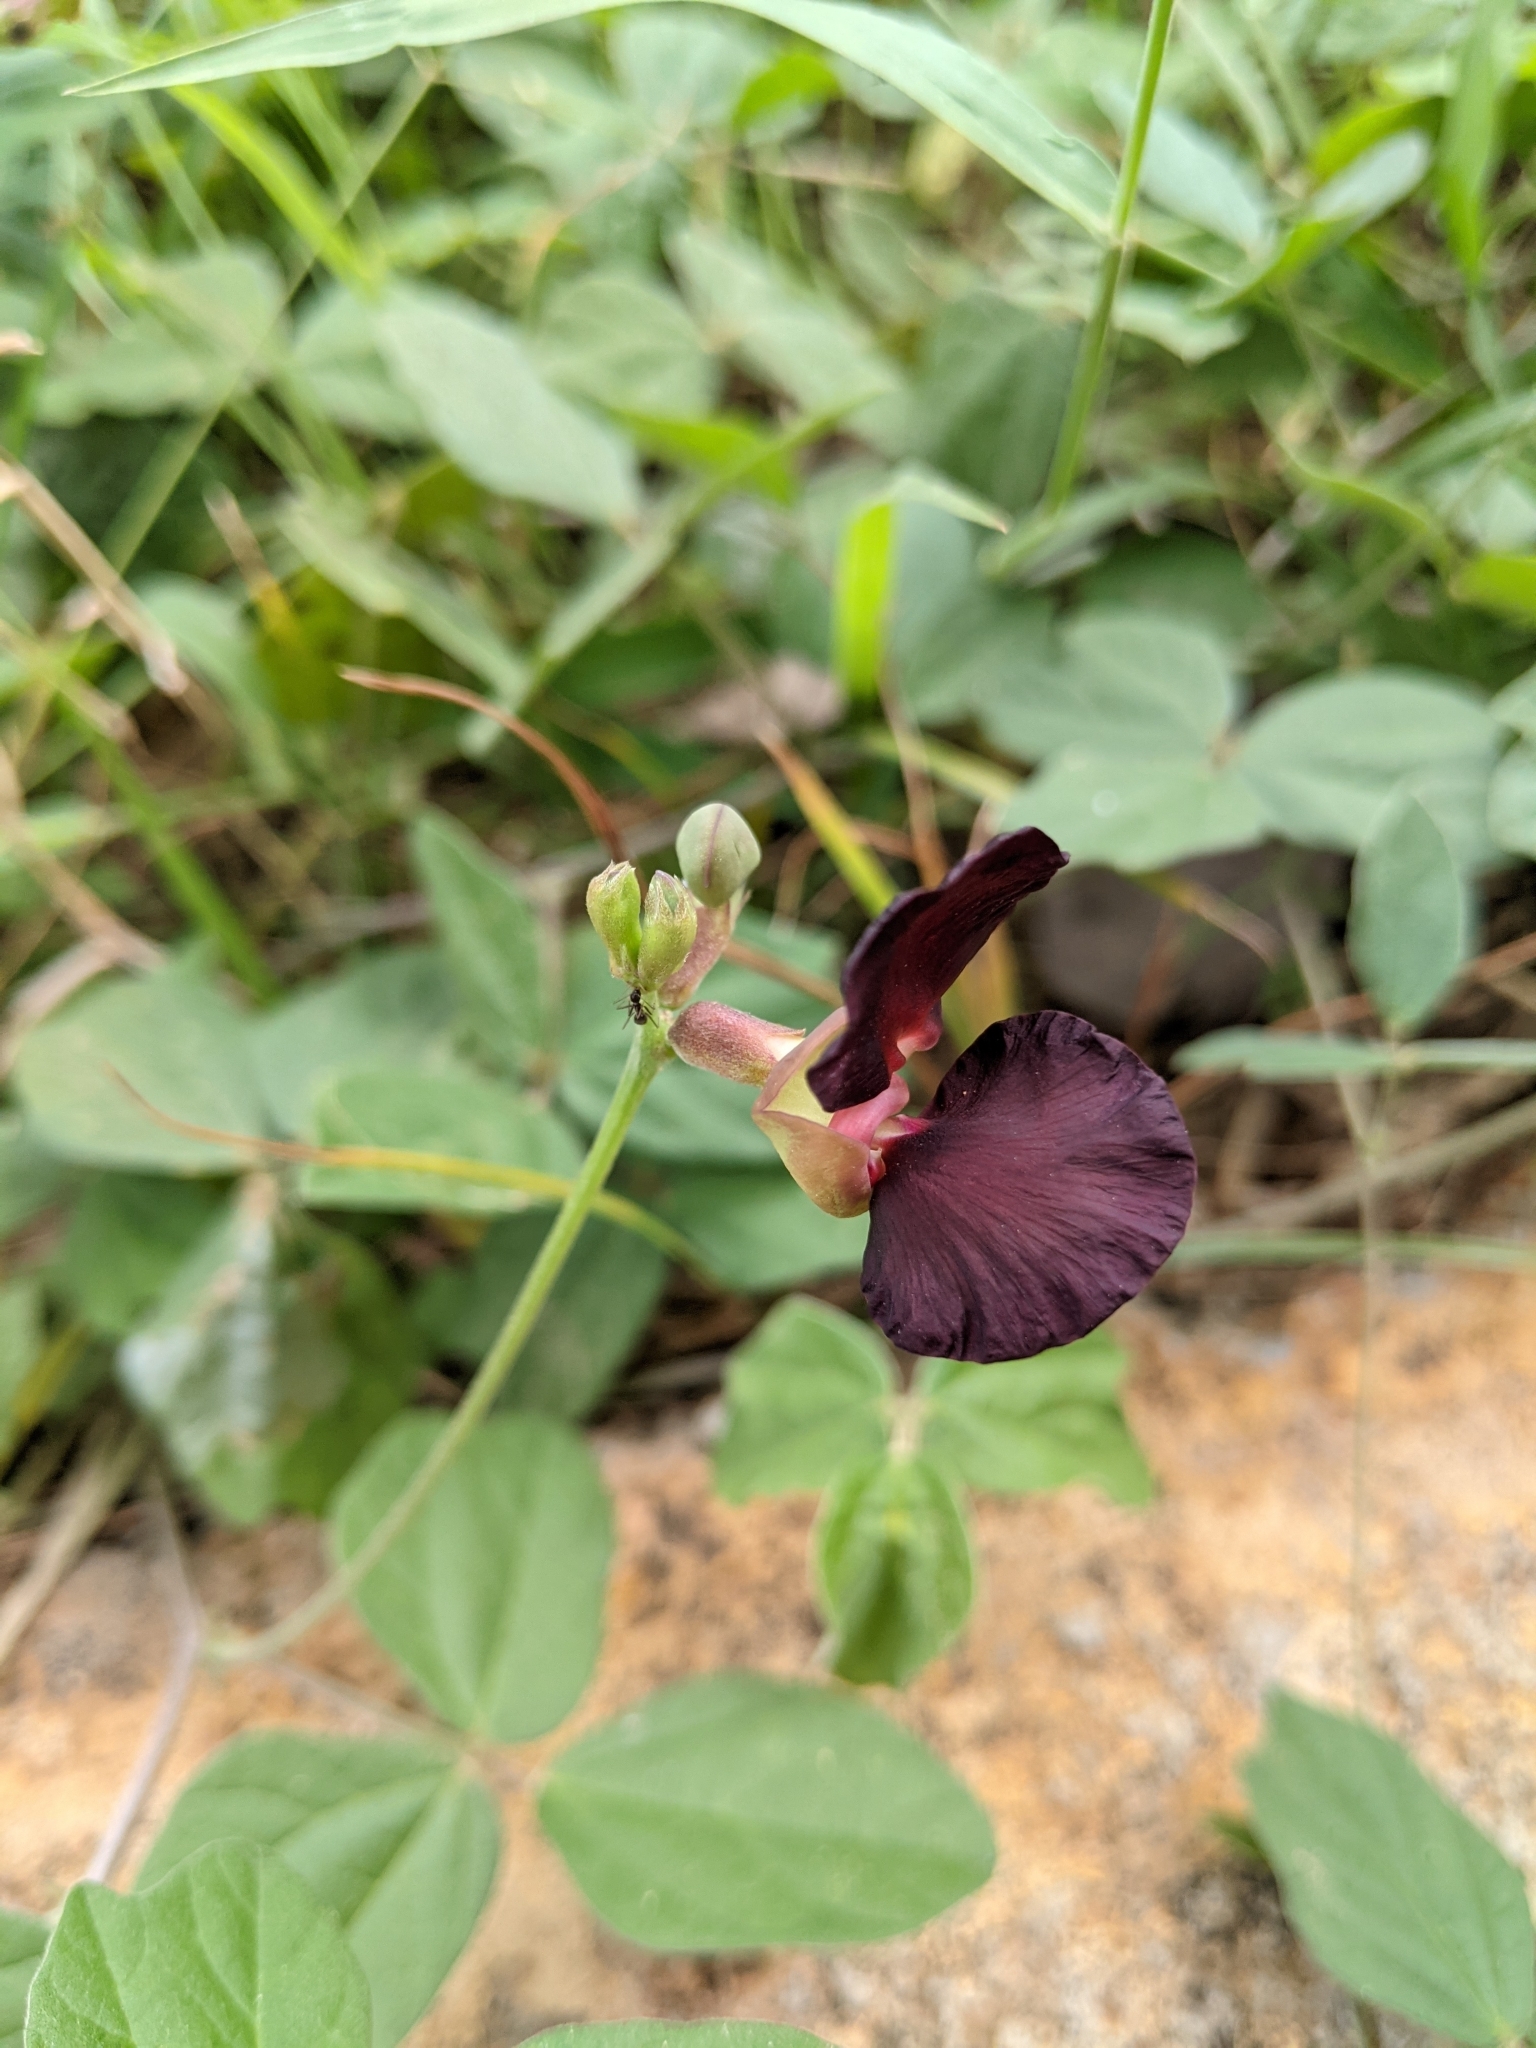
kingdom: Plantae
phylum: Tracheophyta
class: Magnoliopsida
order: Fabales
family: Fabaceae
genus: Macroptilium
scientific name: Macroptilium atropurpureum
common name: Purple bushbean
